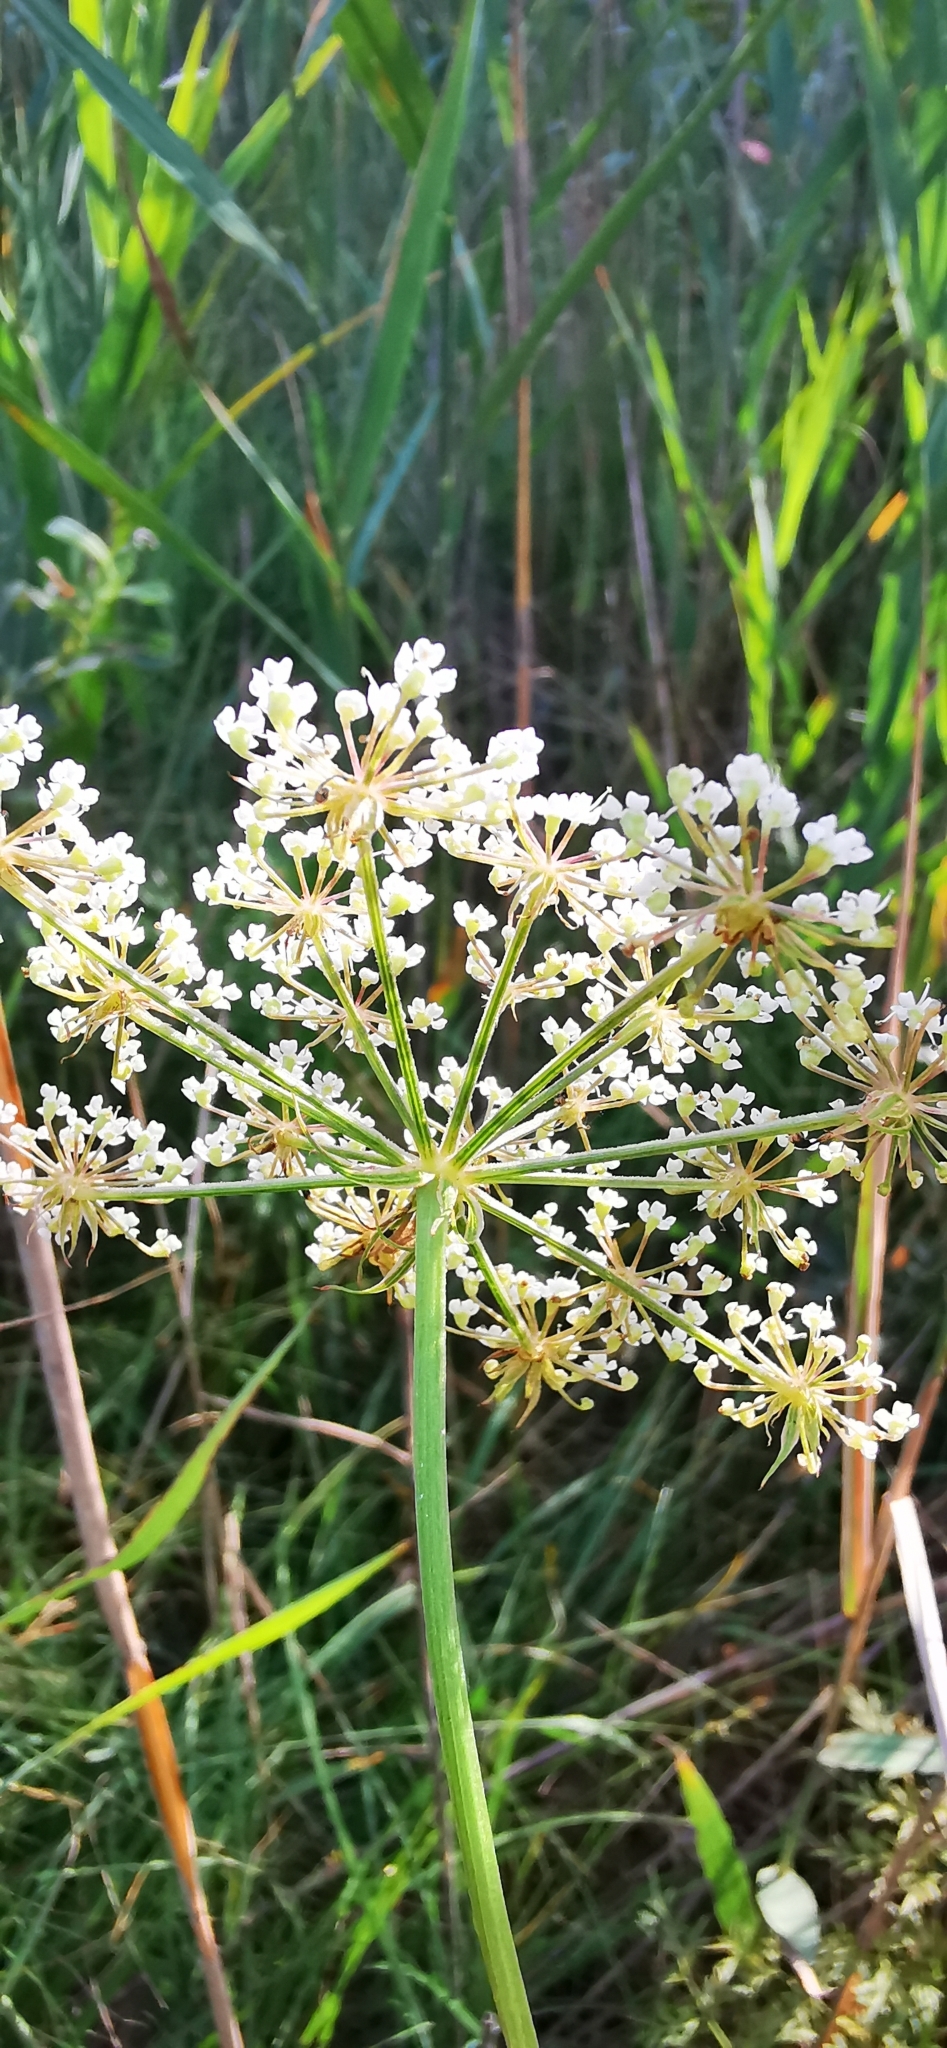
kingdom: Plantae
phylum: Tracheophyta
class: Magnoliopsida
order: Apiales
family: Apiaceae
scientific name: Apiaceae
